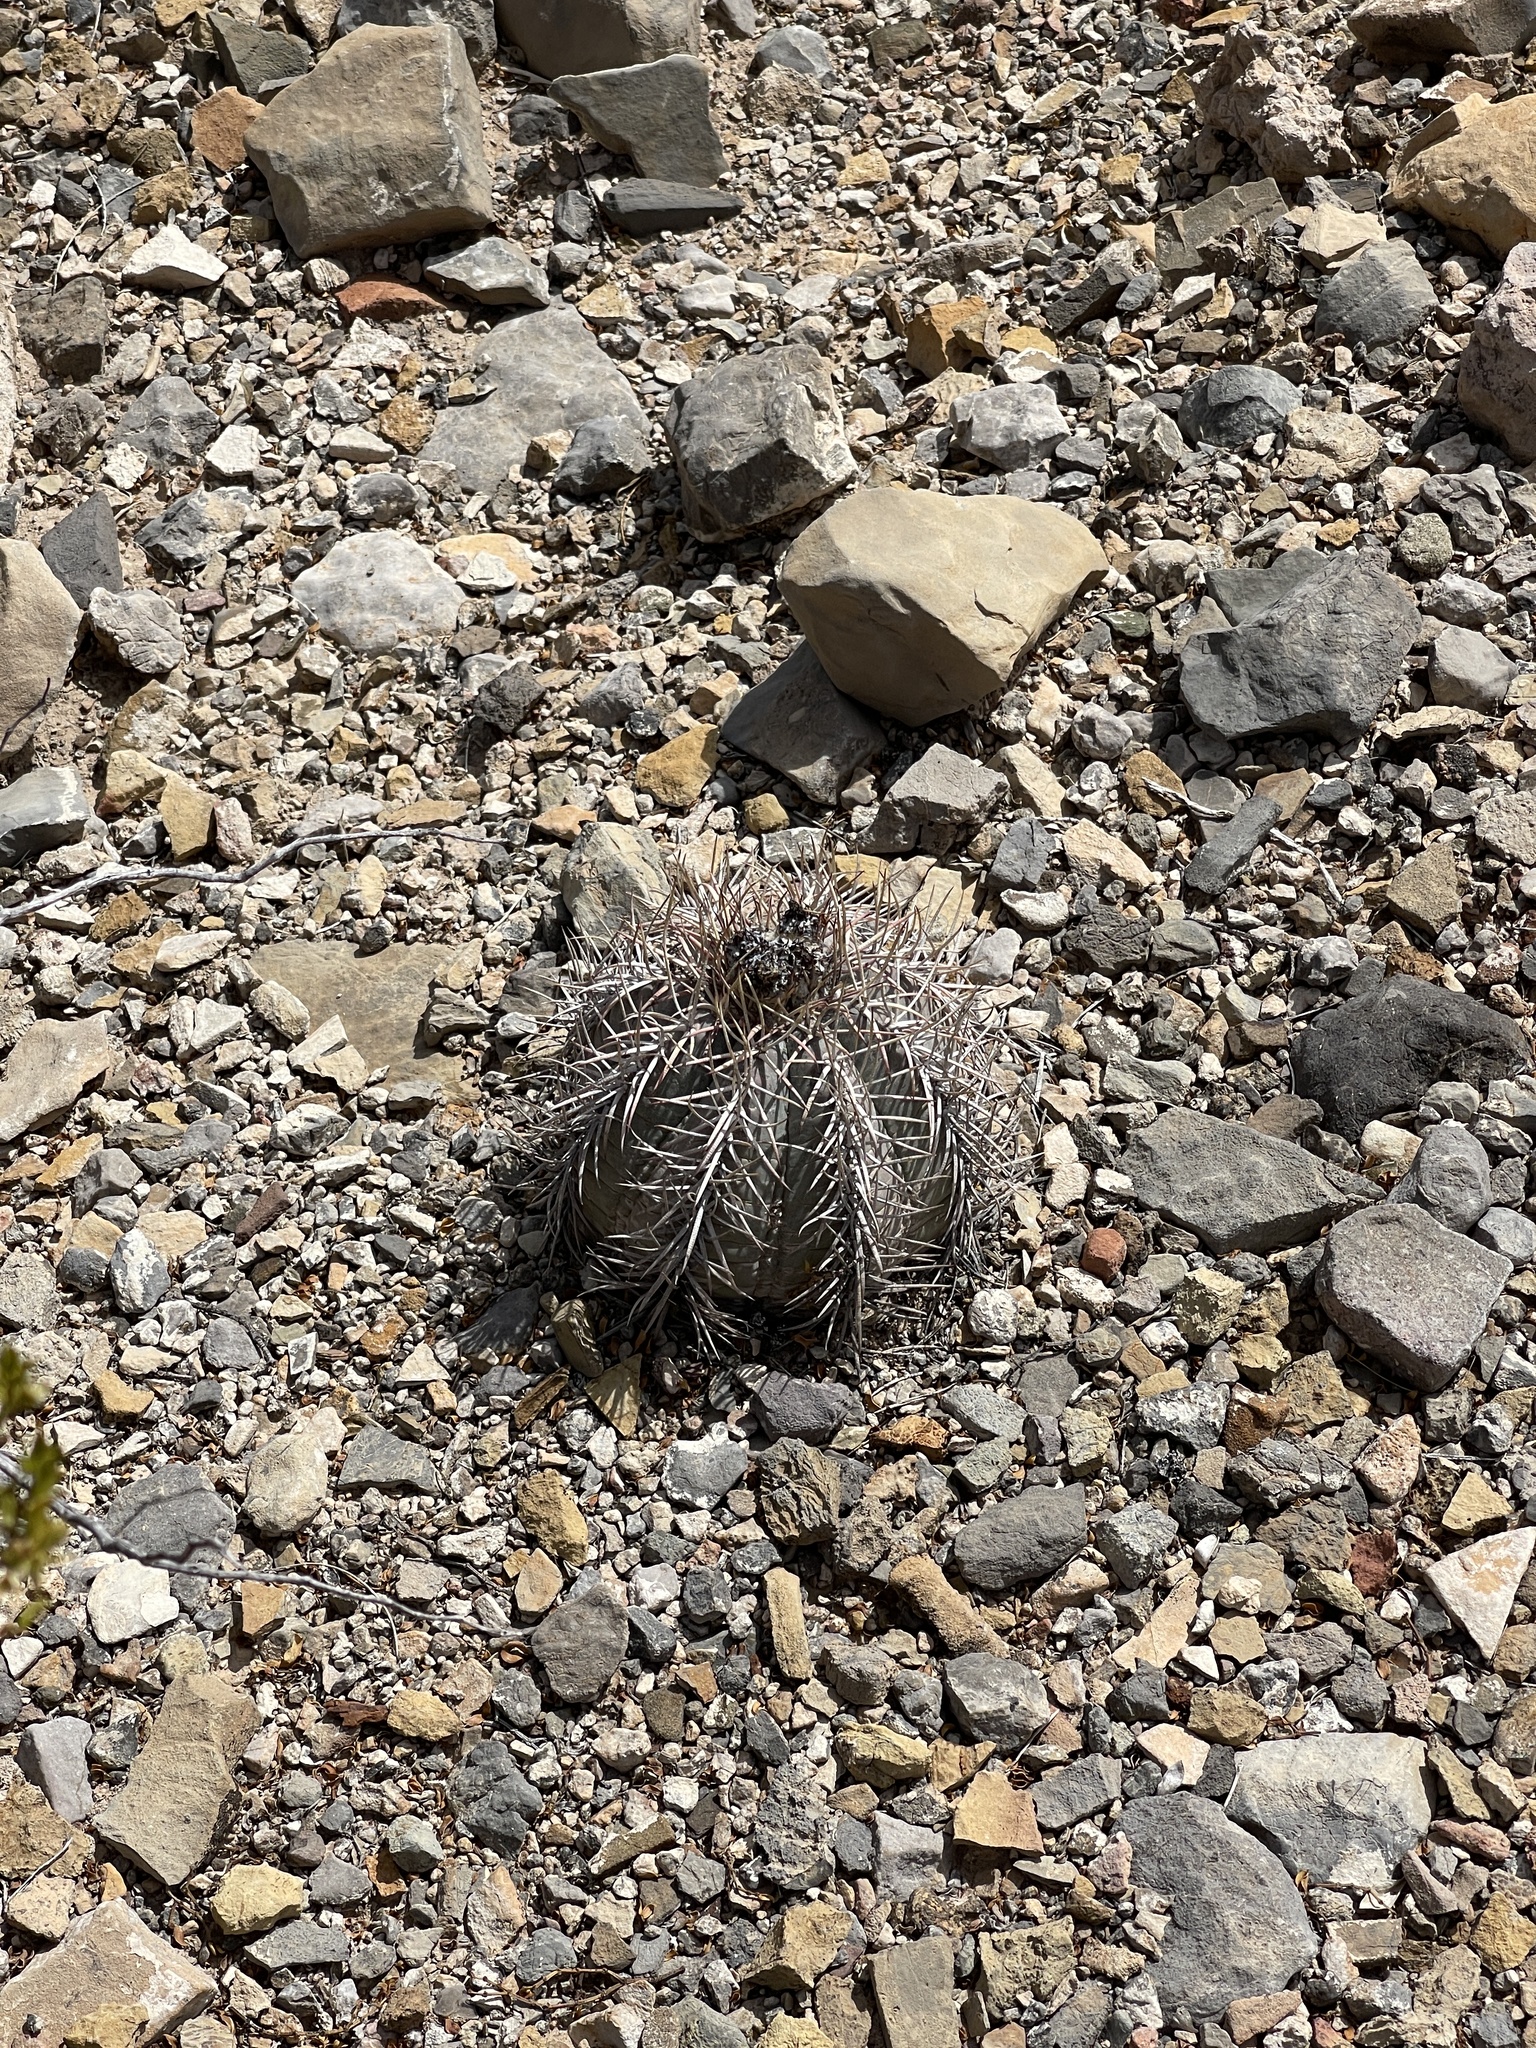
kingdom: Plantae
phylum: Tracheophyta
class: Magnoliopsida
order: Caryophyllales
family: Cactaceae
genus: Echinocactus
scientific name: Echinocactus horizonthalonius
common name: Devilshead
